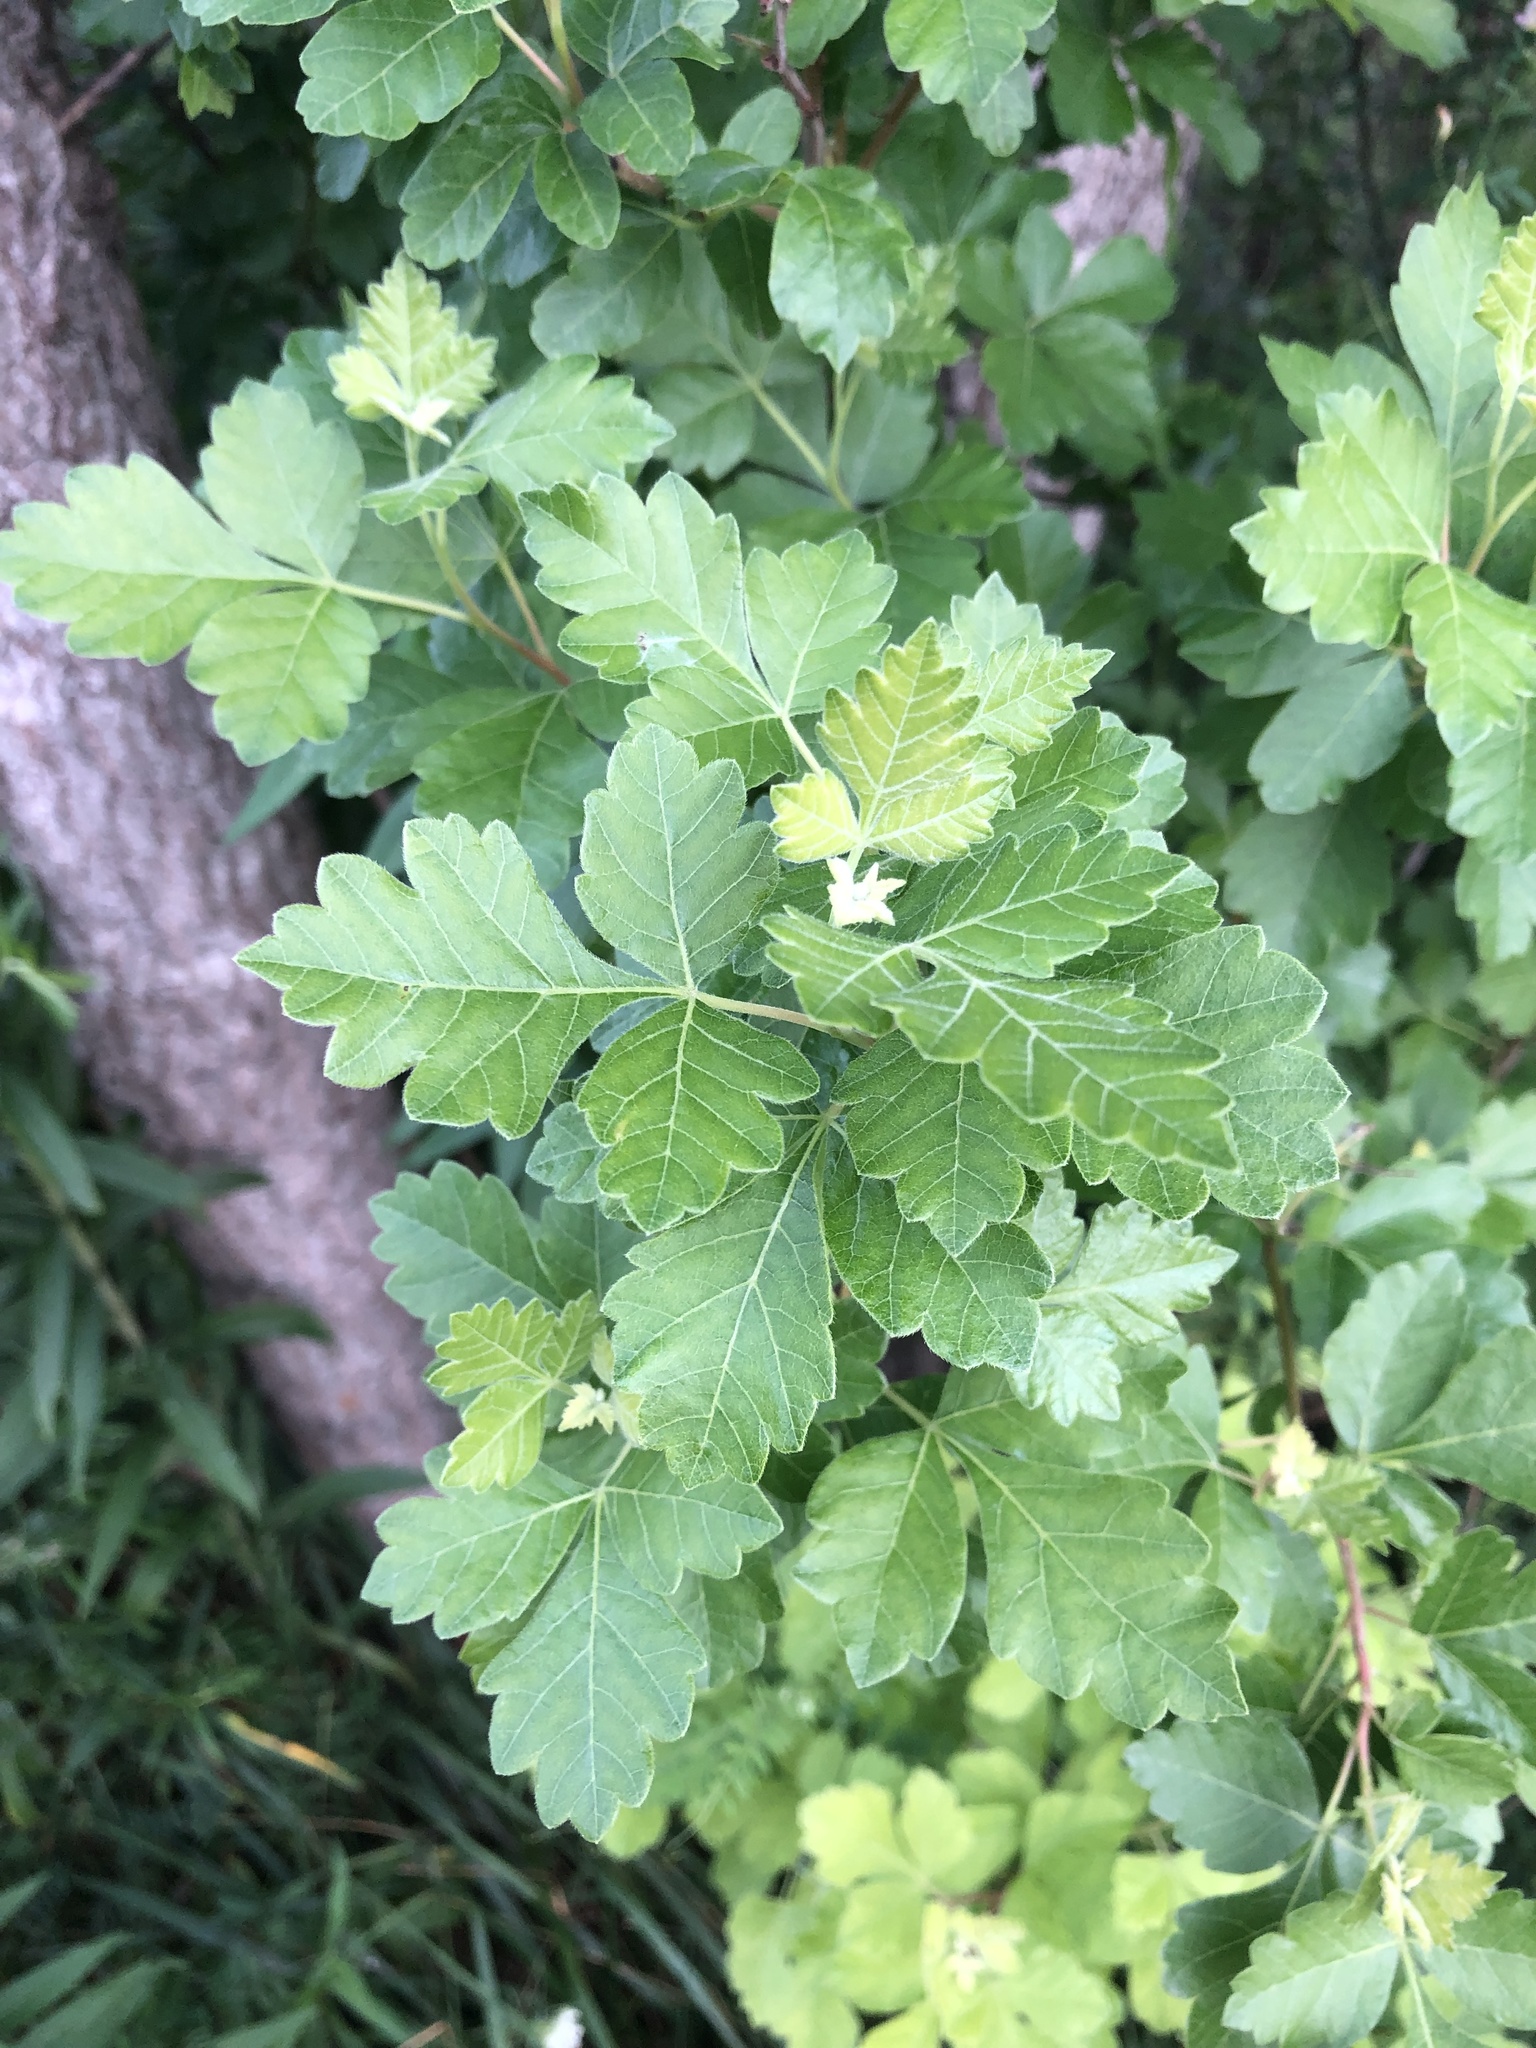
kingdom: Plantae
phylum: Tracheophyta
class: Magnoliopsida
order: Sapindales
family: Anacardiaceae
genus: Rhus
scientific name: Rhus aromatica
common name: Aromatic sumac
